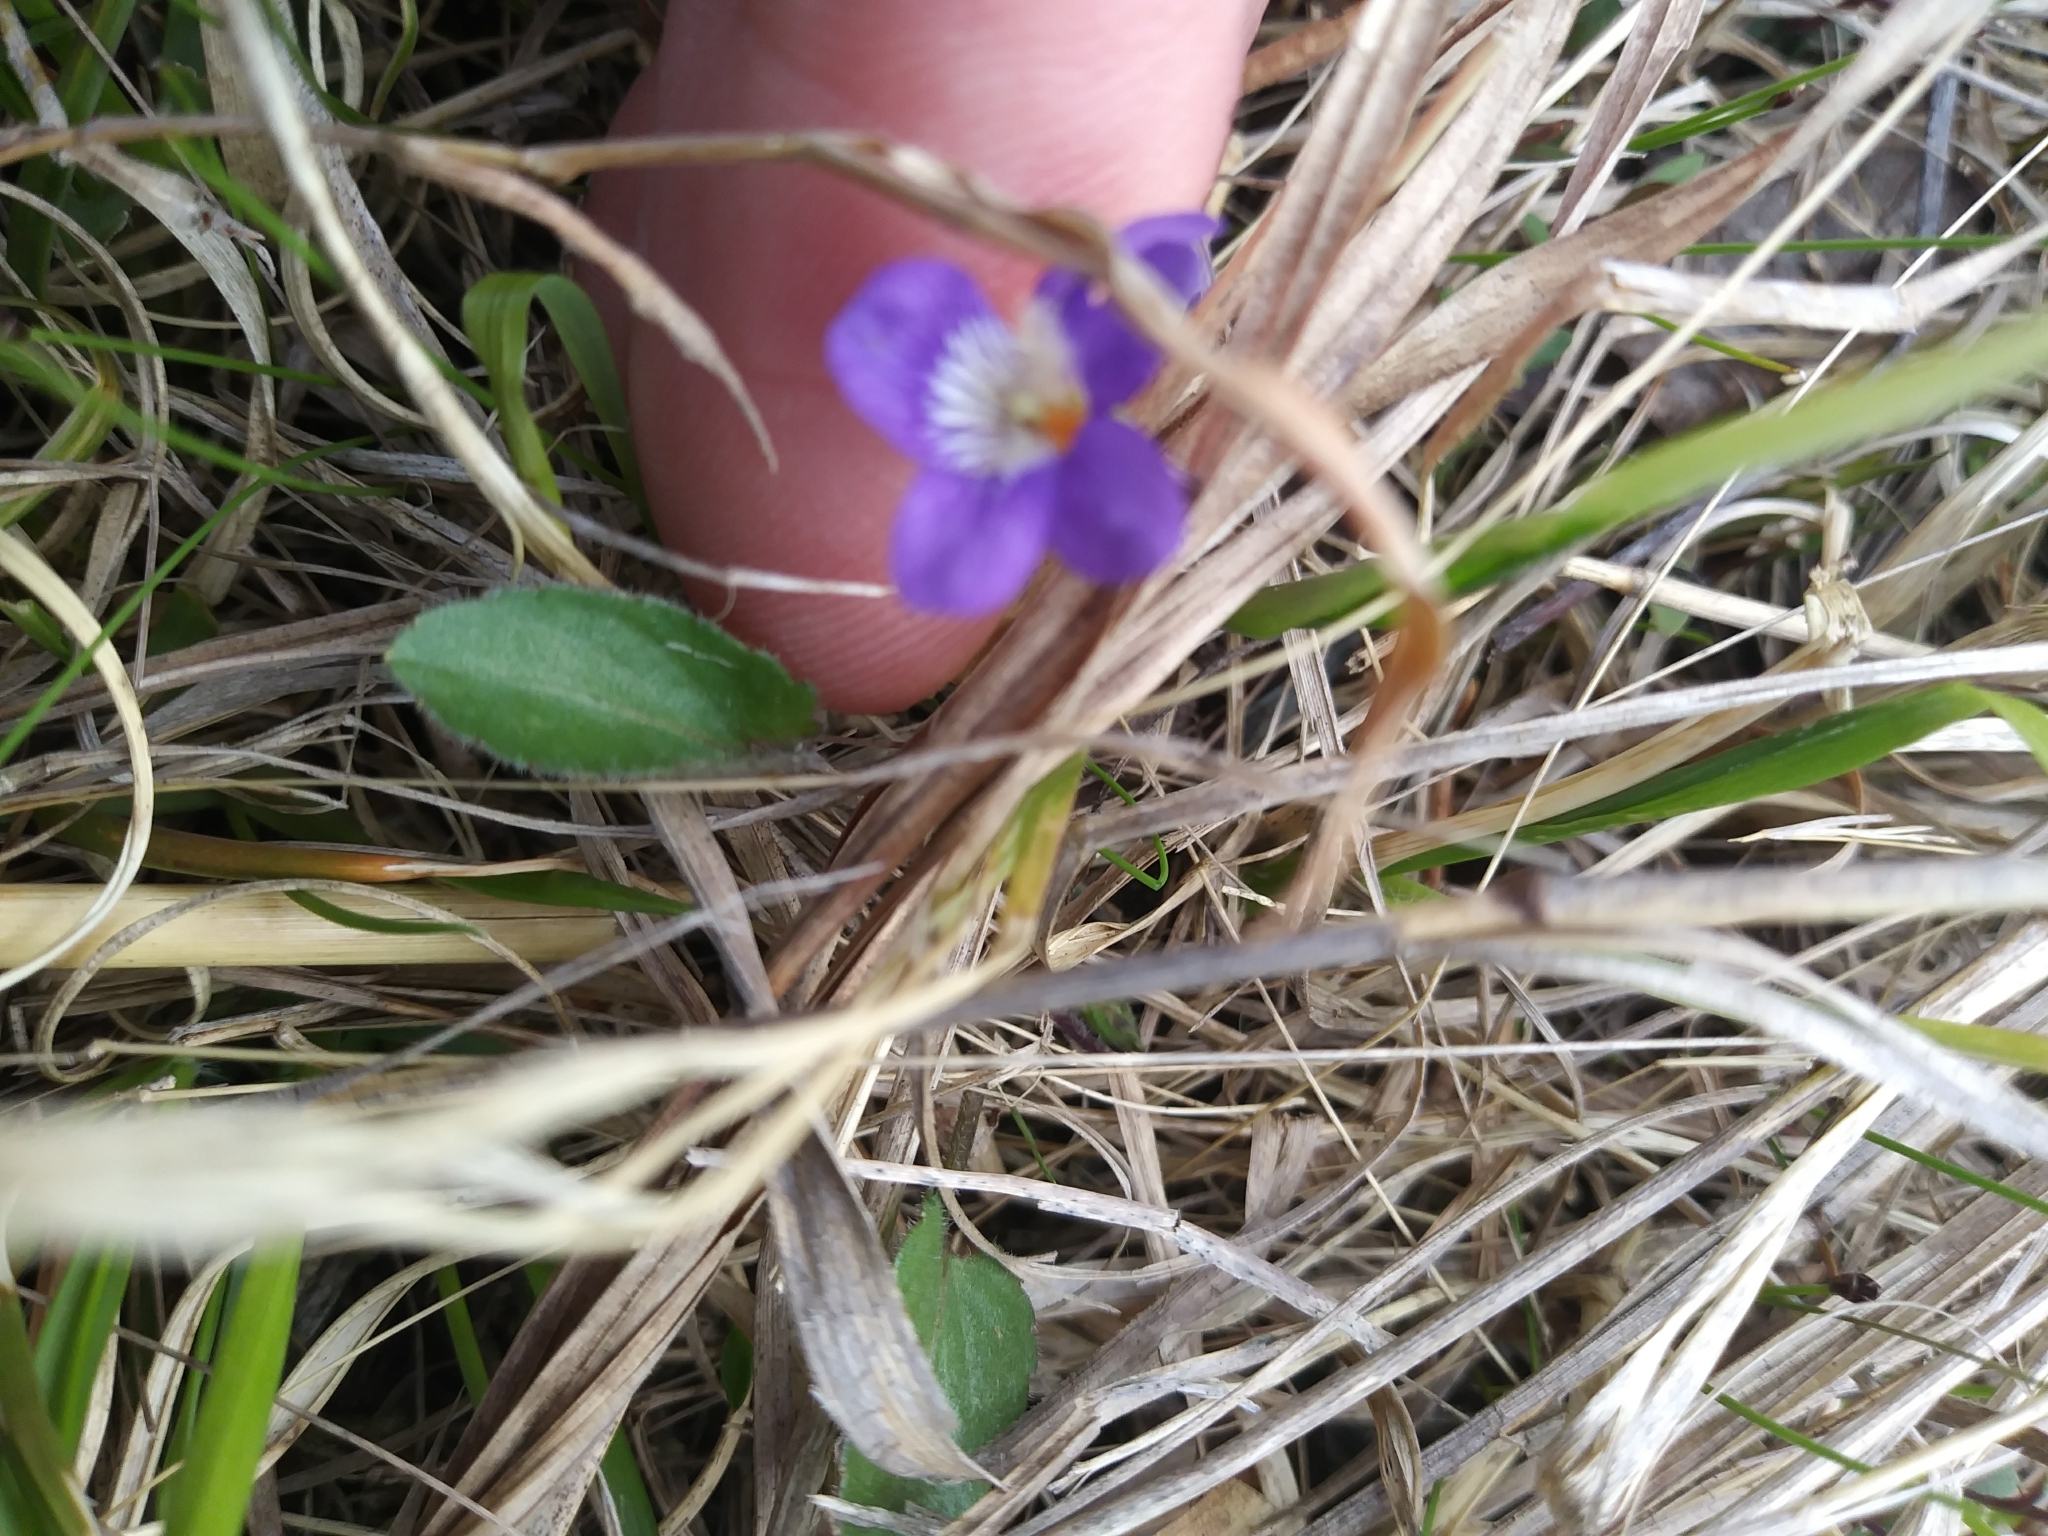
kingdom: Plantae
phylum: Tracheophyta
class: Magnoliopsida
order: Malpighiales
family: Violaceae
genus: Viola
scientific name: Viola
